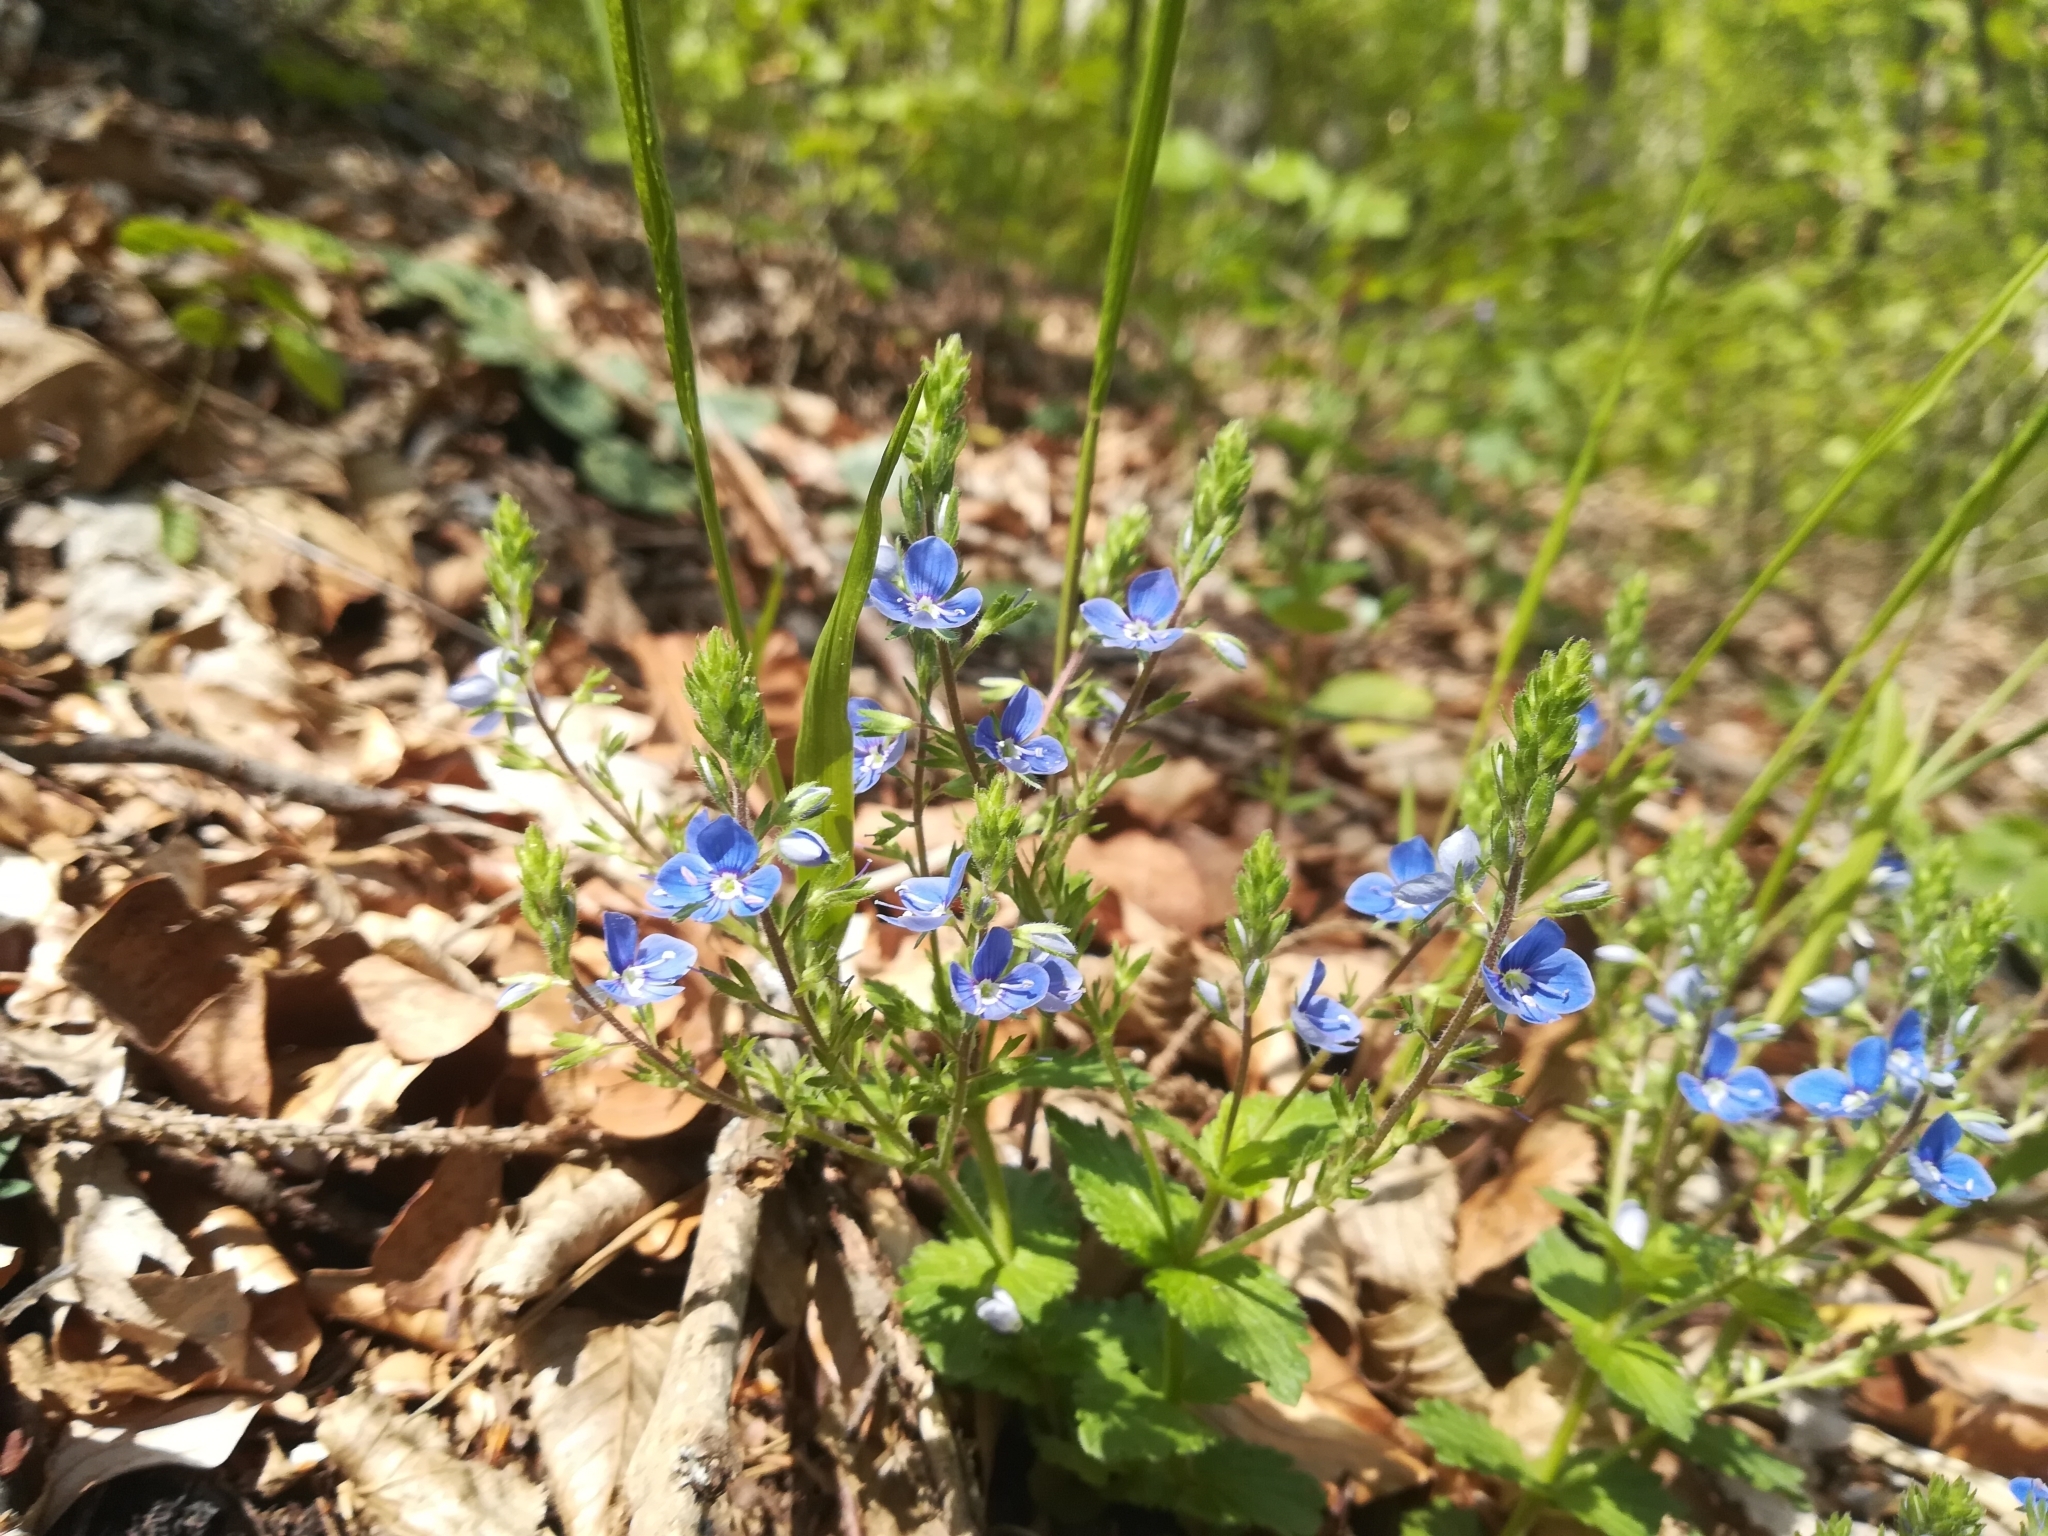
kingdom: Plantae
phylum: Tracheophyta
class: Magnoliopsida
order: Lamiales
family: Plantaginaceae
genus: Veronica
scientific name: Veronica chamaedrys
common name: Germander speedwell
